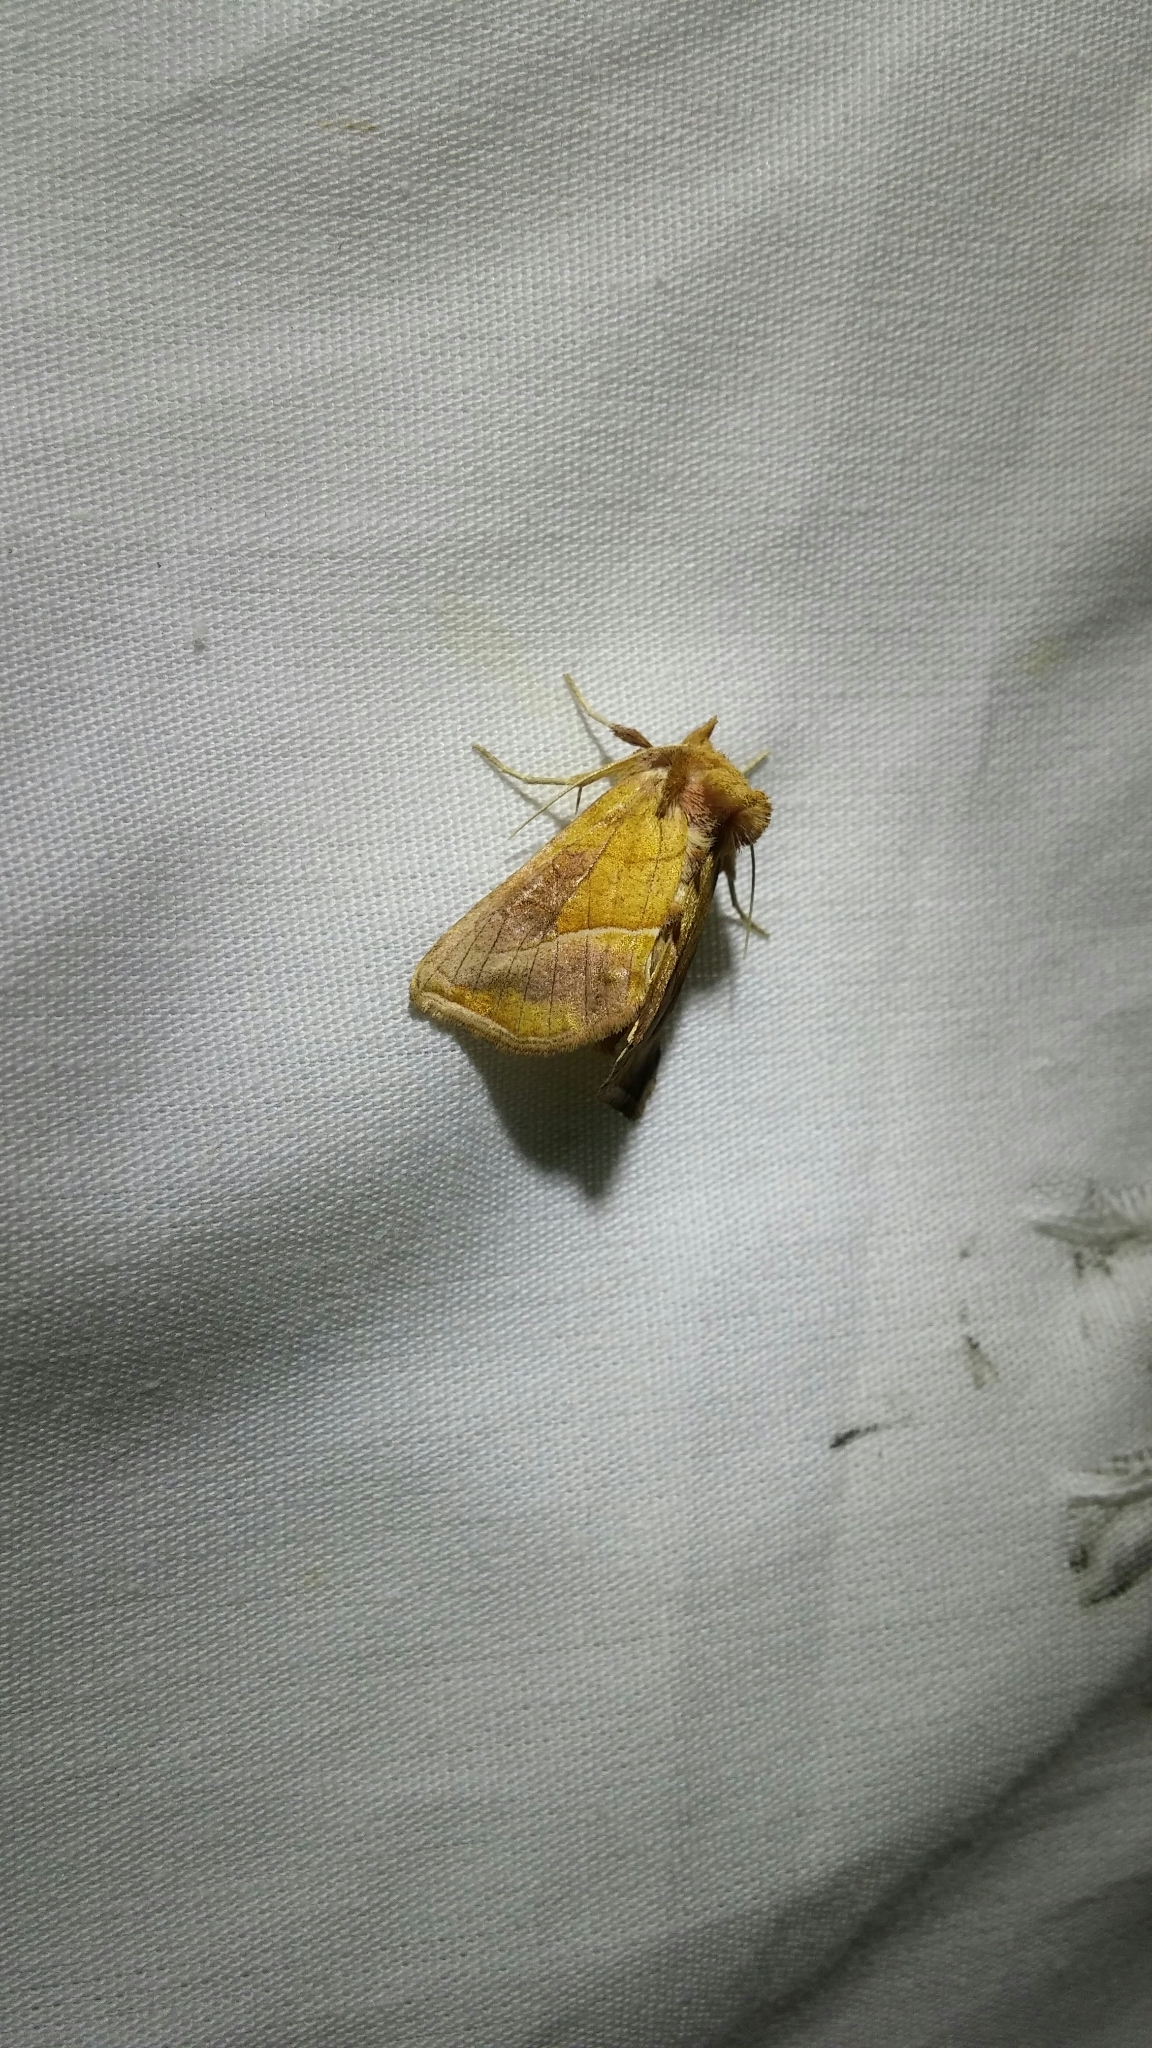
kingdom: Animalia
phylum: Arthropoda
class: Insecta
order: Lepidoptera
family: Noctuidae
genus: Pseudeva
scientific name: Pseudeva palligera
